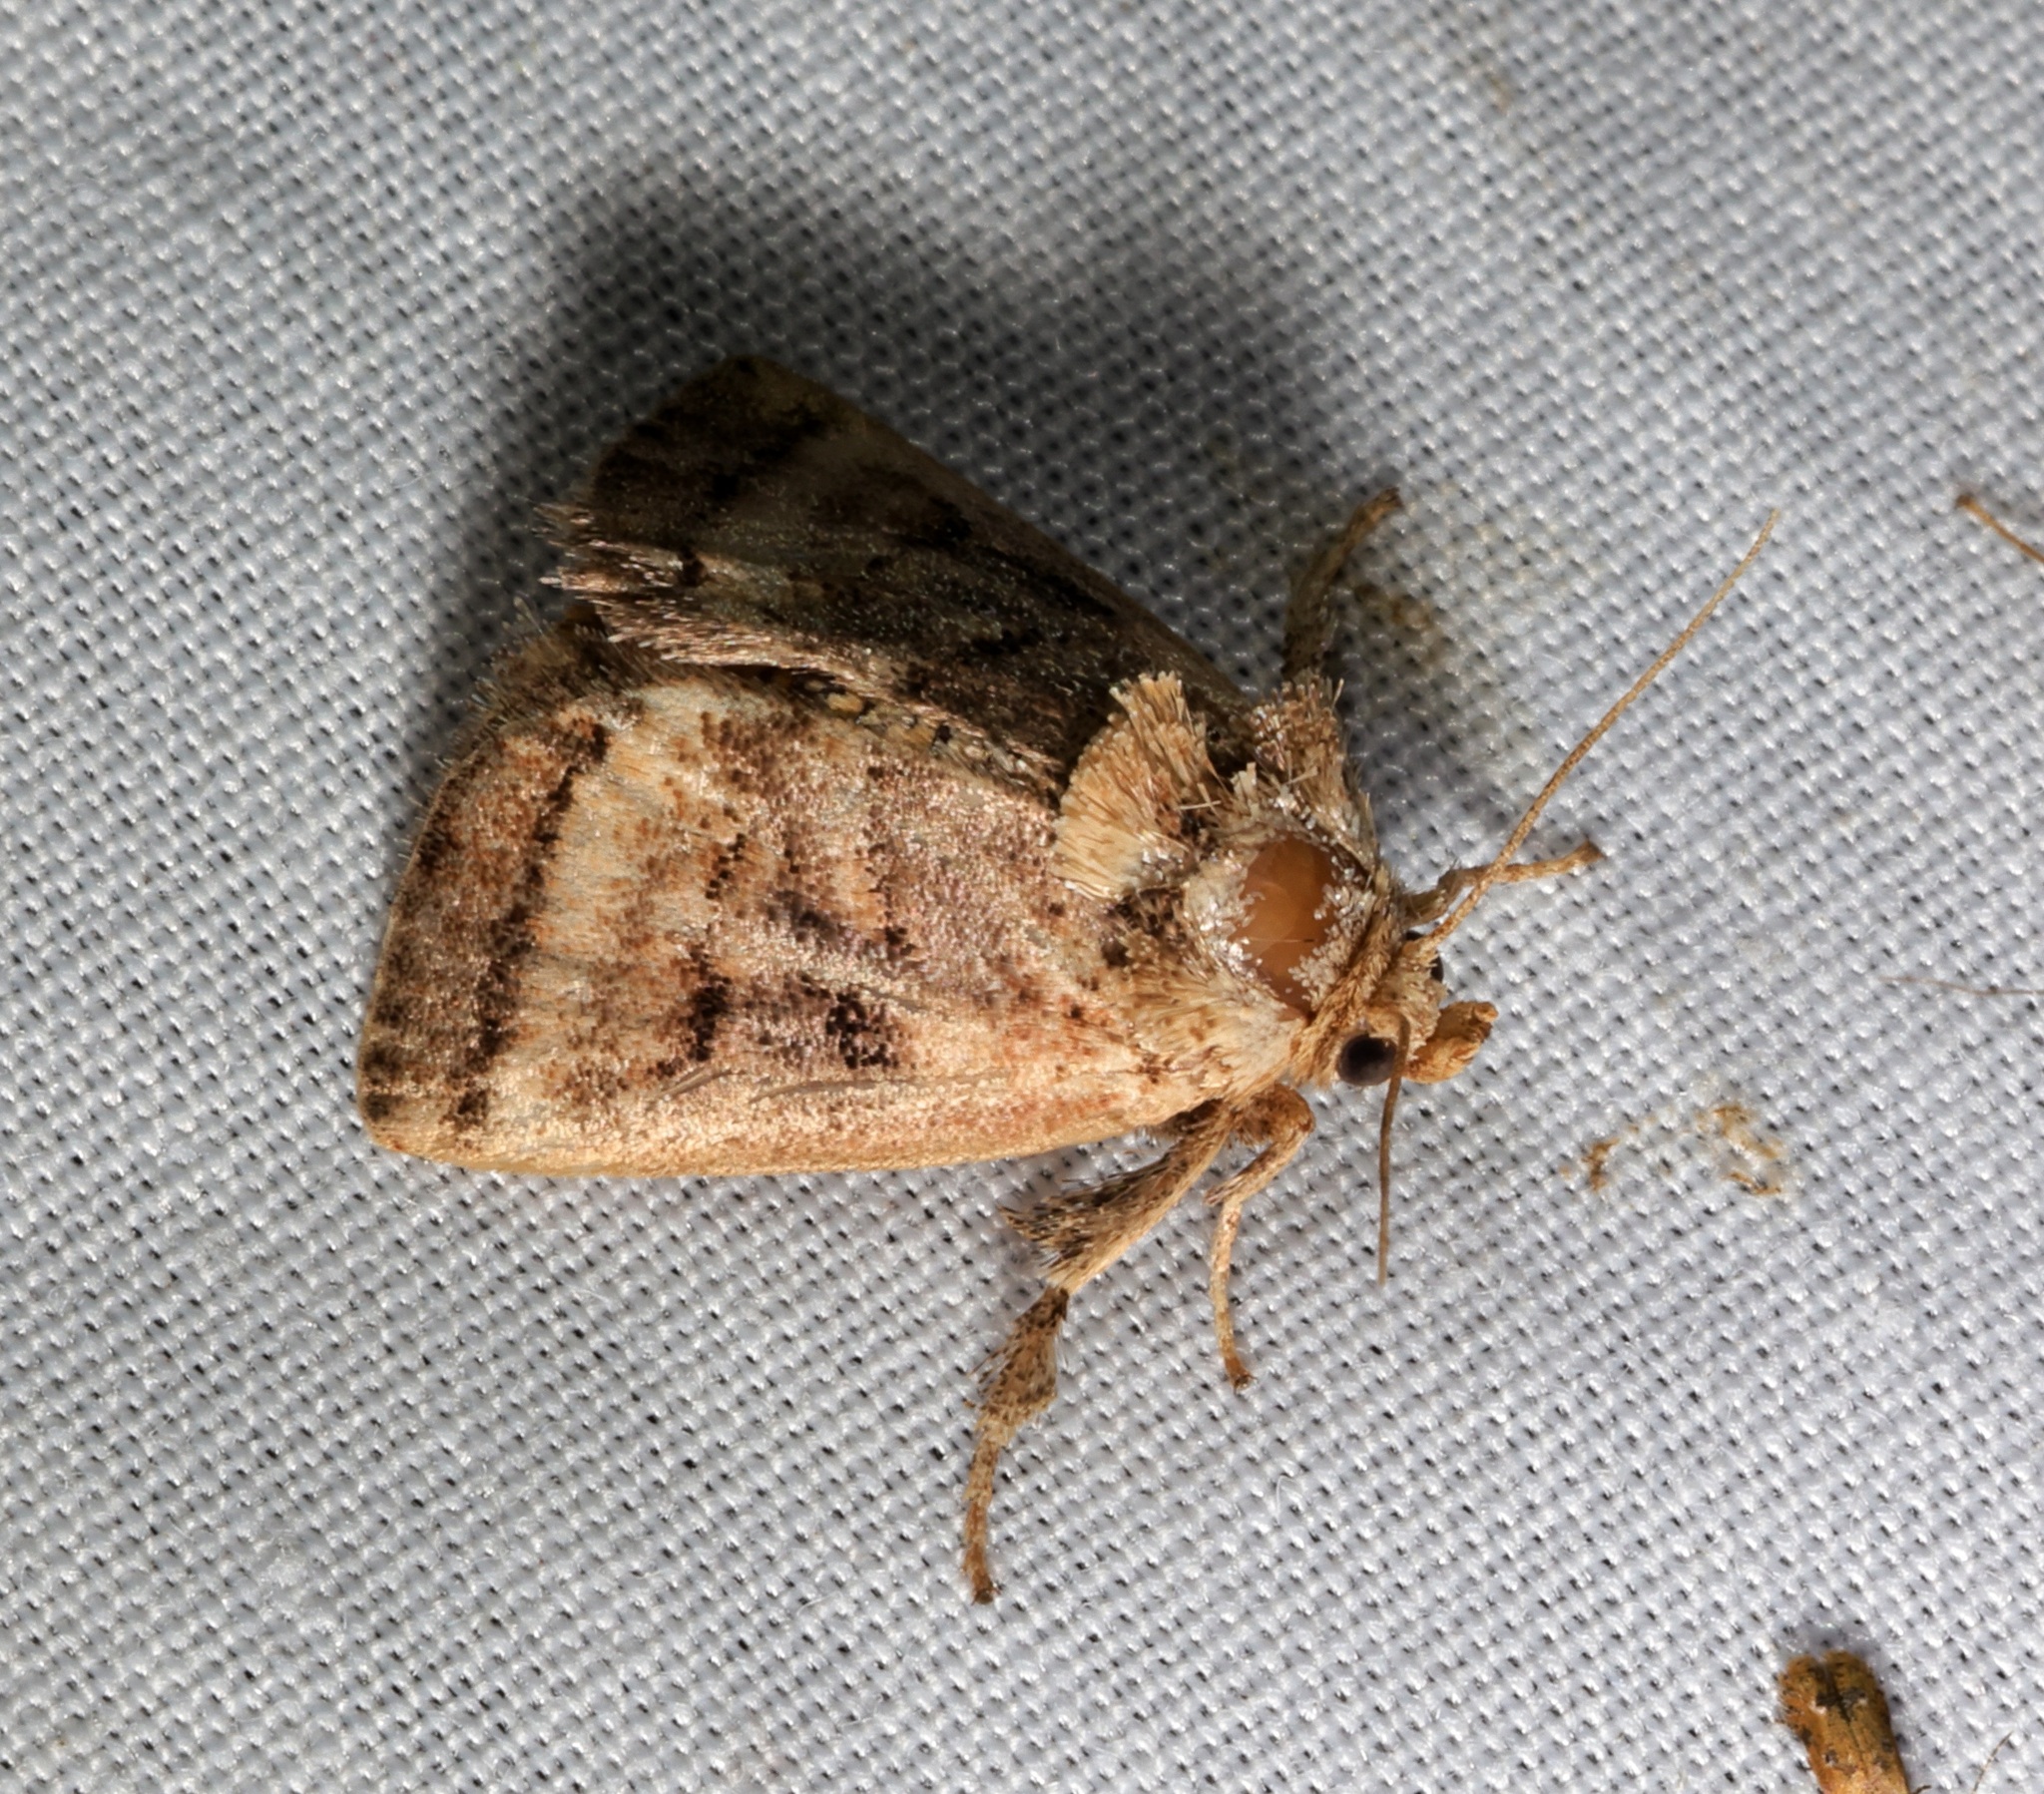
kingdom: Animalia
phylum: Arthropoda
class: Insecta
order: Lepidoptera
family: Limacodidae
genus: Orthocraspeda
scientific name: Orthocraspeda furva
